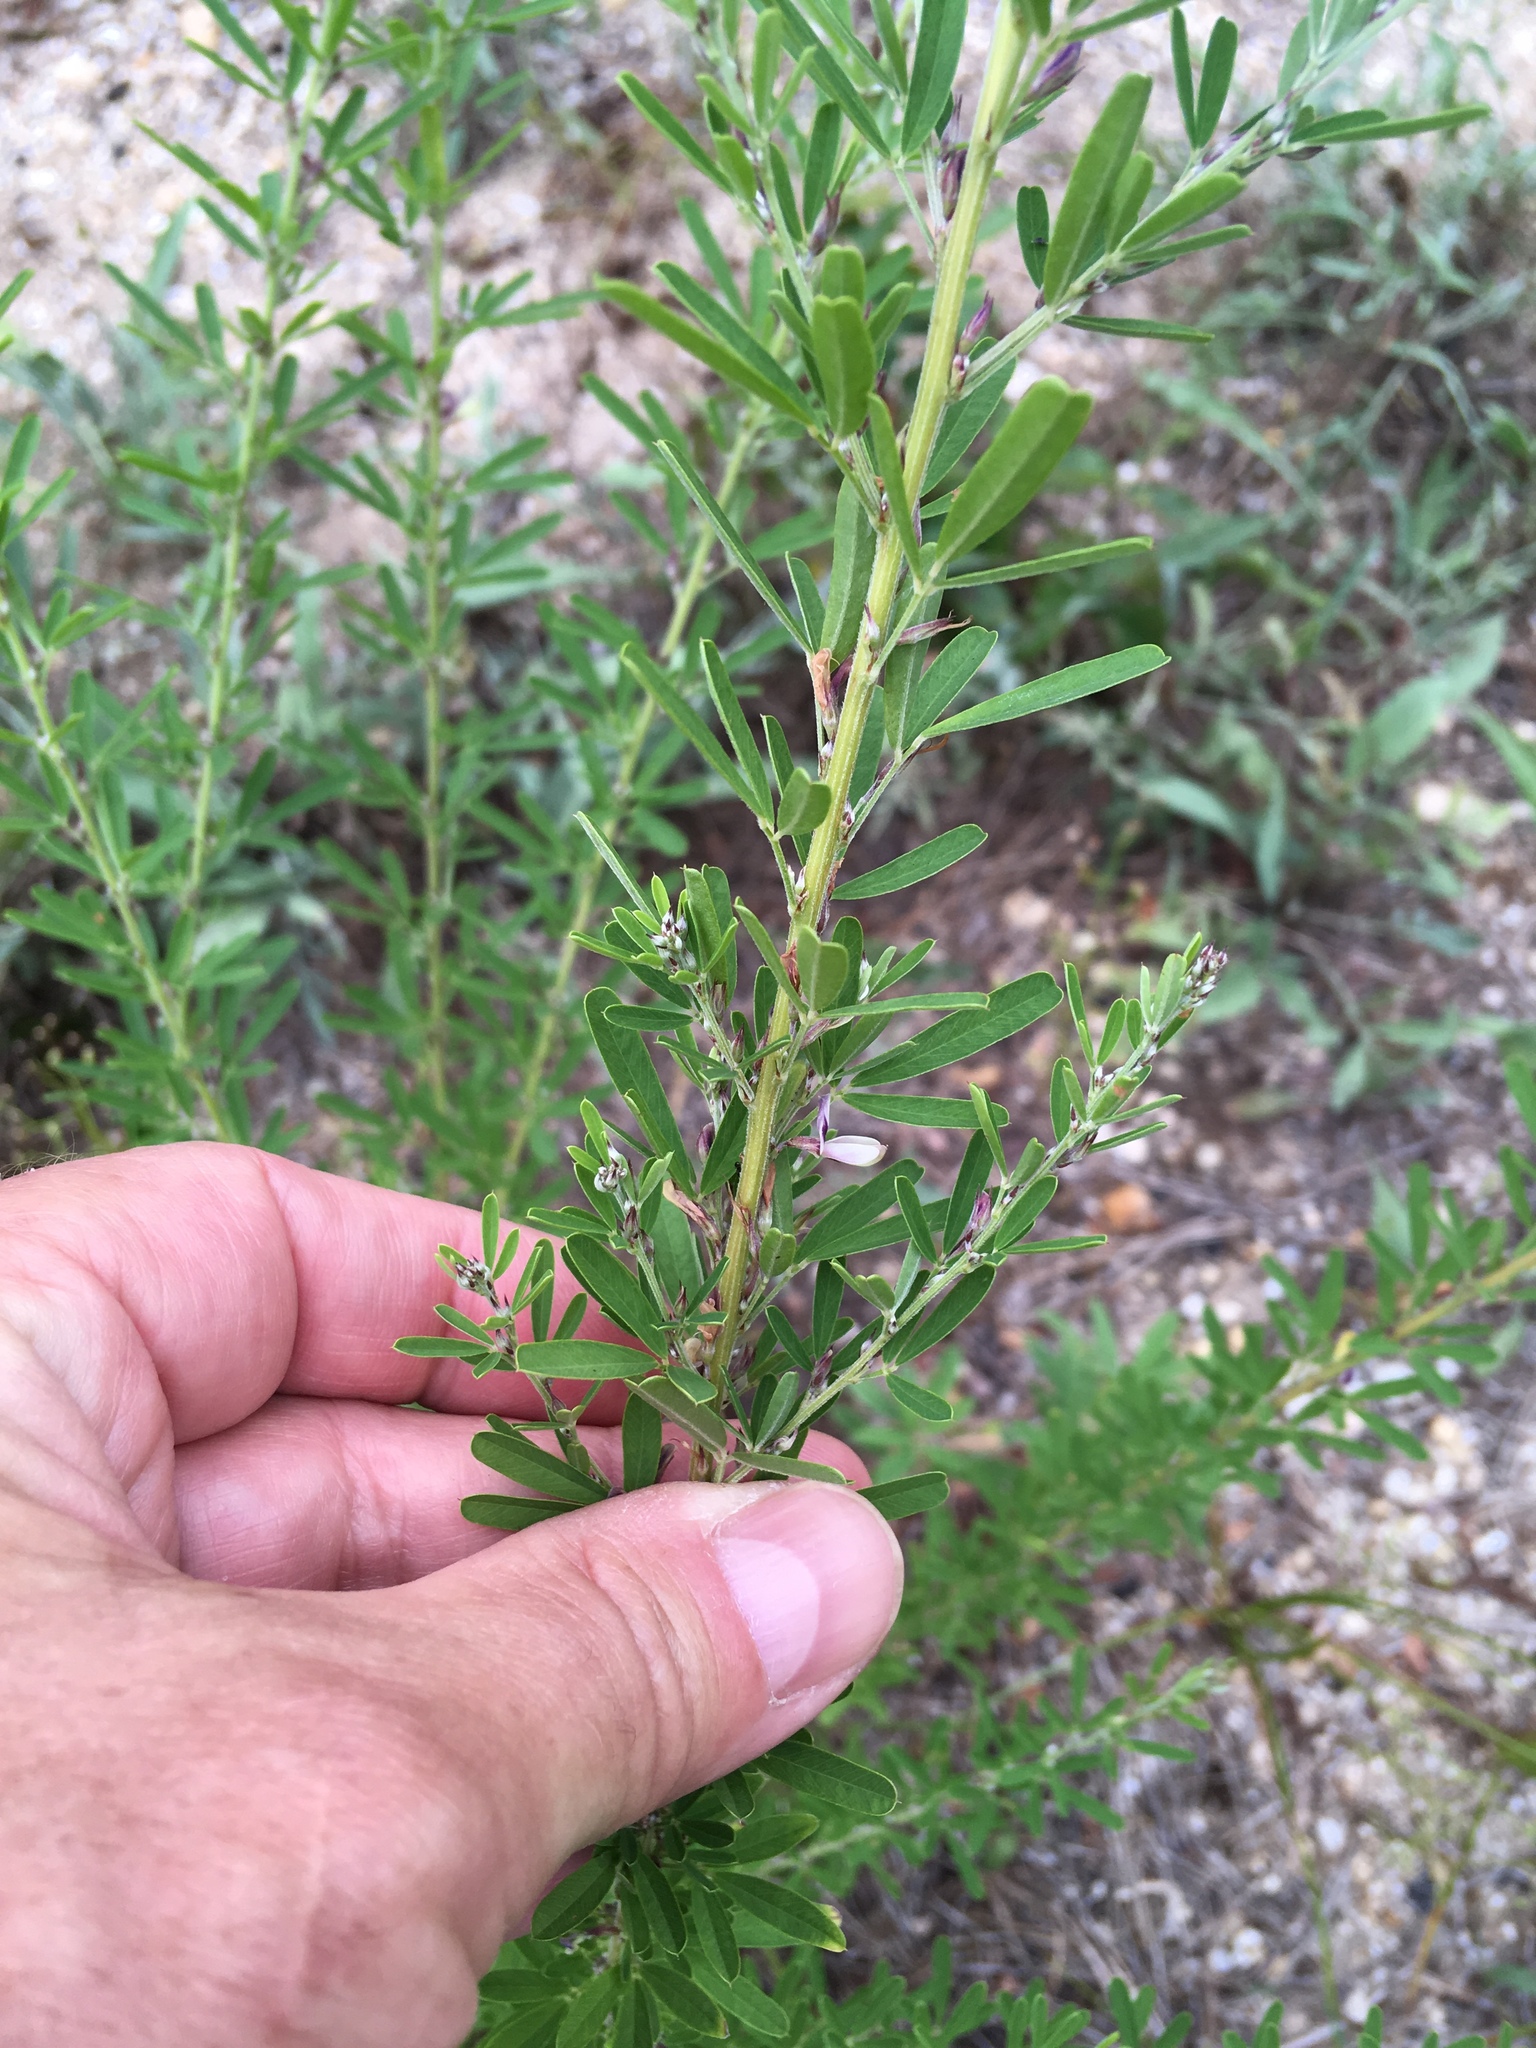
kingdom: Plantae
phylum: Tracheophyta
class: Magnoliopsida
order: Fabales
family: Fabaceae
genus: Lespedeza
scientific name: Lespedeza cuneata
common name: Chinese bush-clover
